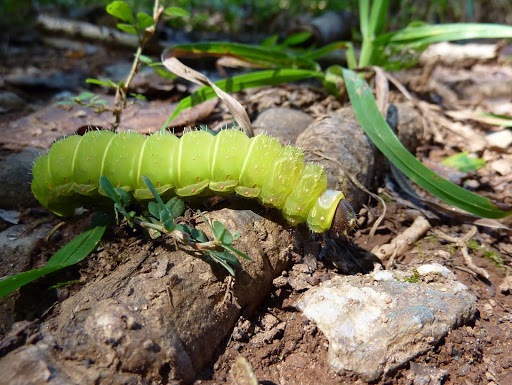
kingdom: Animalia
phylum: Arthropoda
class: Insecta
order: Lepidoptera
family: Saturniidae
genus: Actias
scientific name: Actias luna
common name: Luna moth
